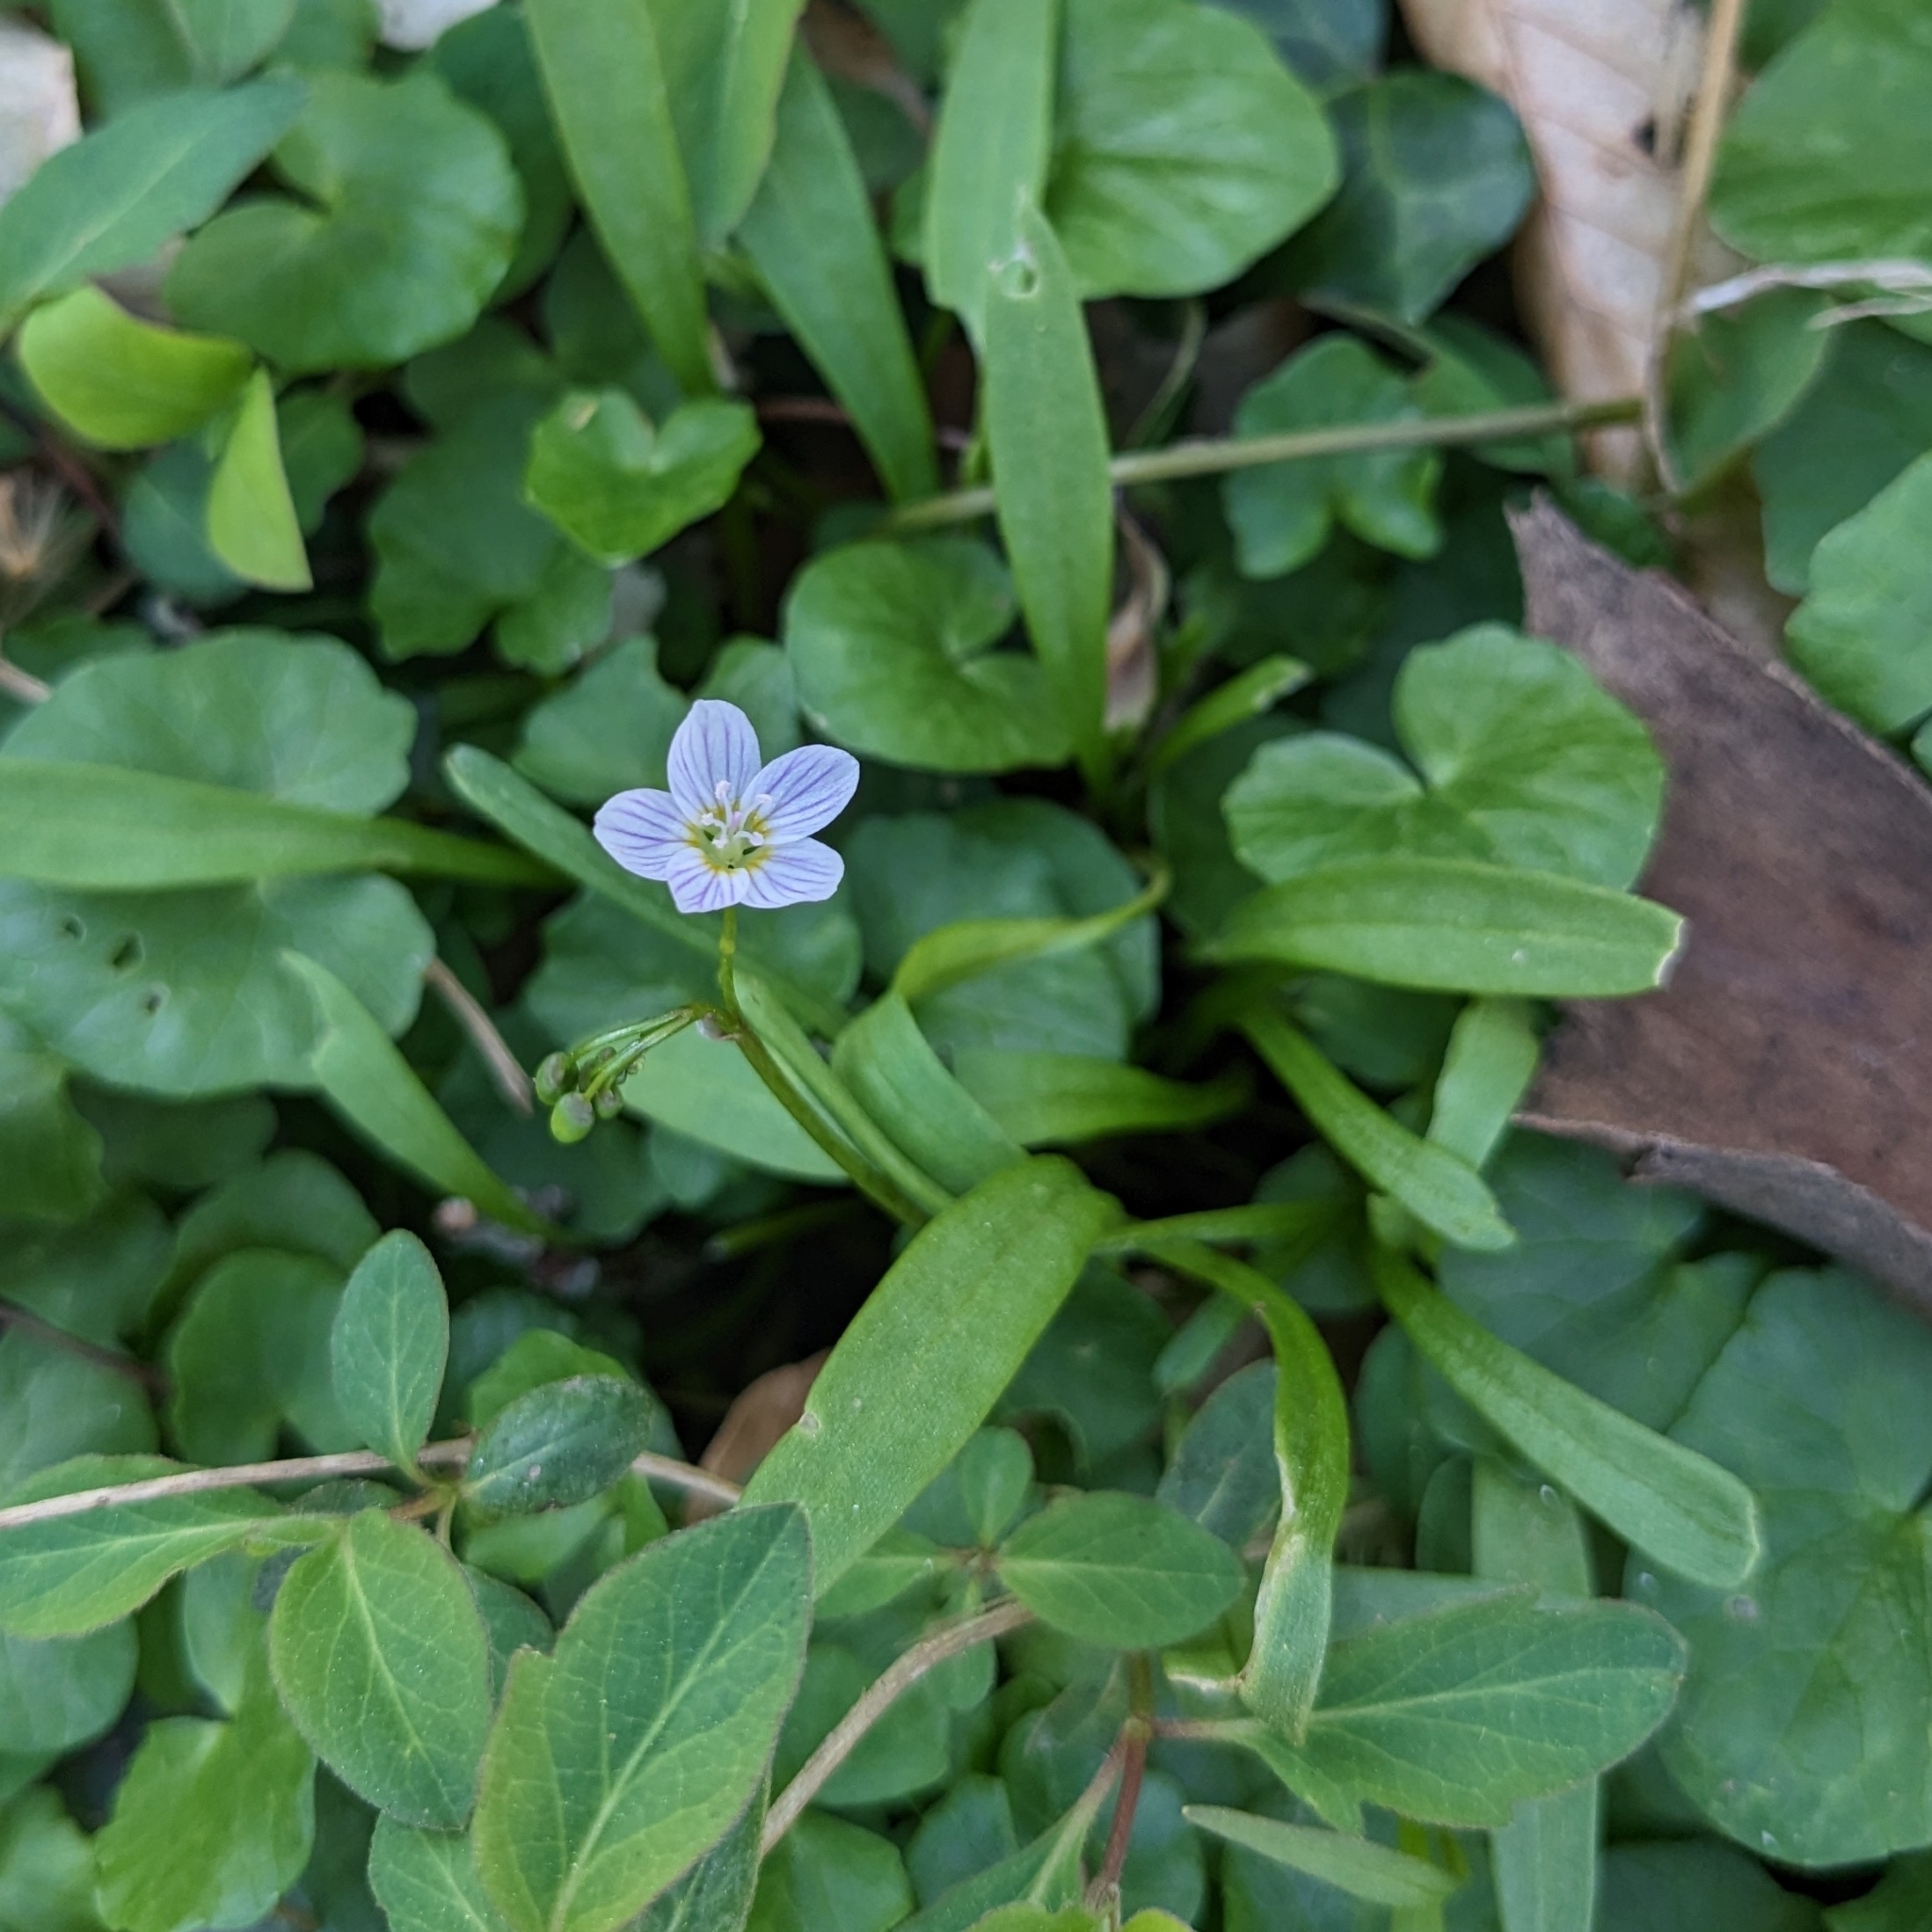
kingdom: Plantae
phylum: Tracheophyta
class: Magnoliopsida
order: Caryophyllales
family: Montiaceae
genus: Claytonia
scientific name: Claytonia virginica
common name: Virginia springbeauty
